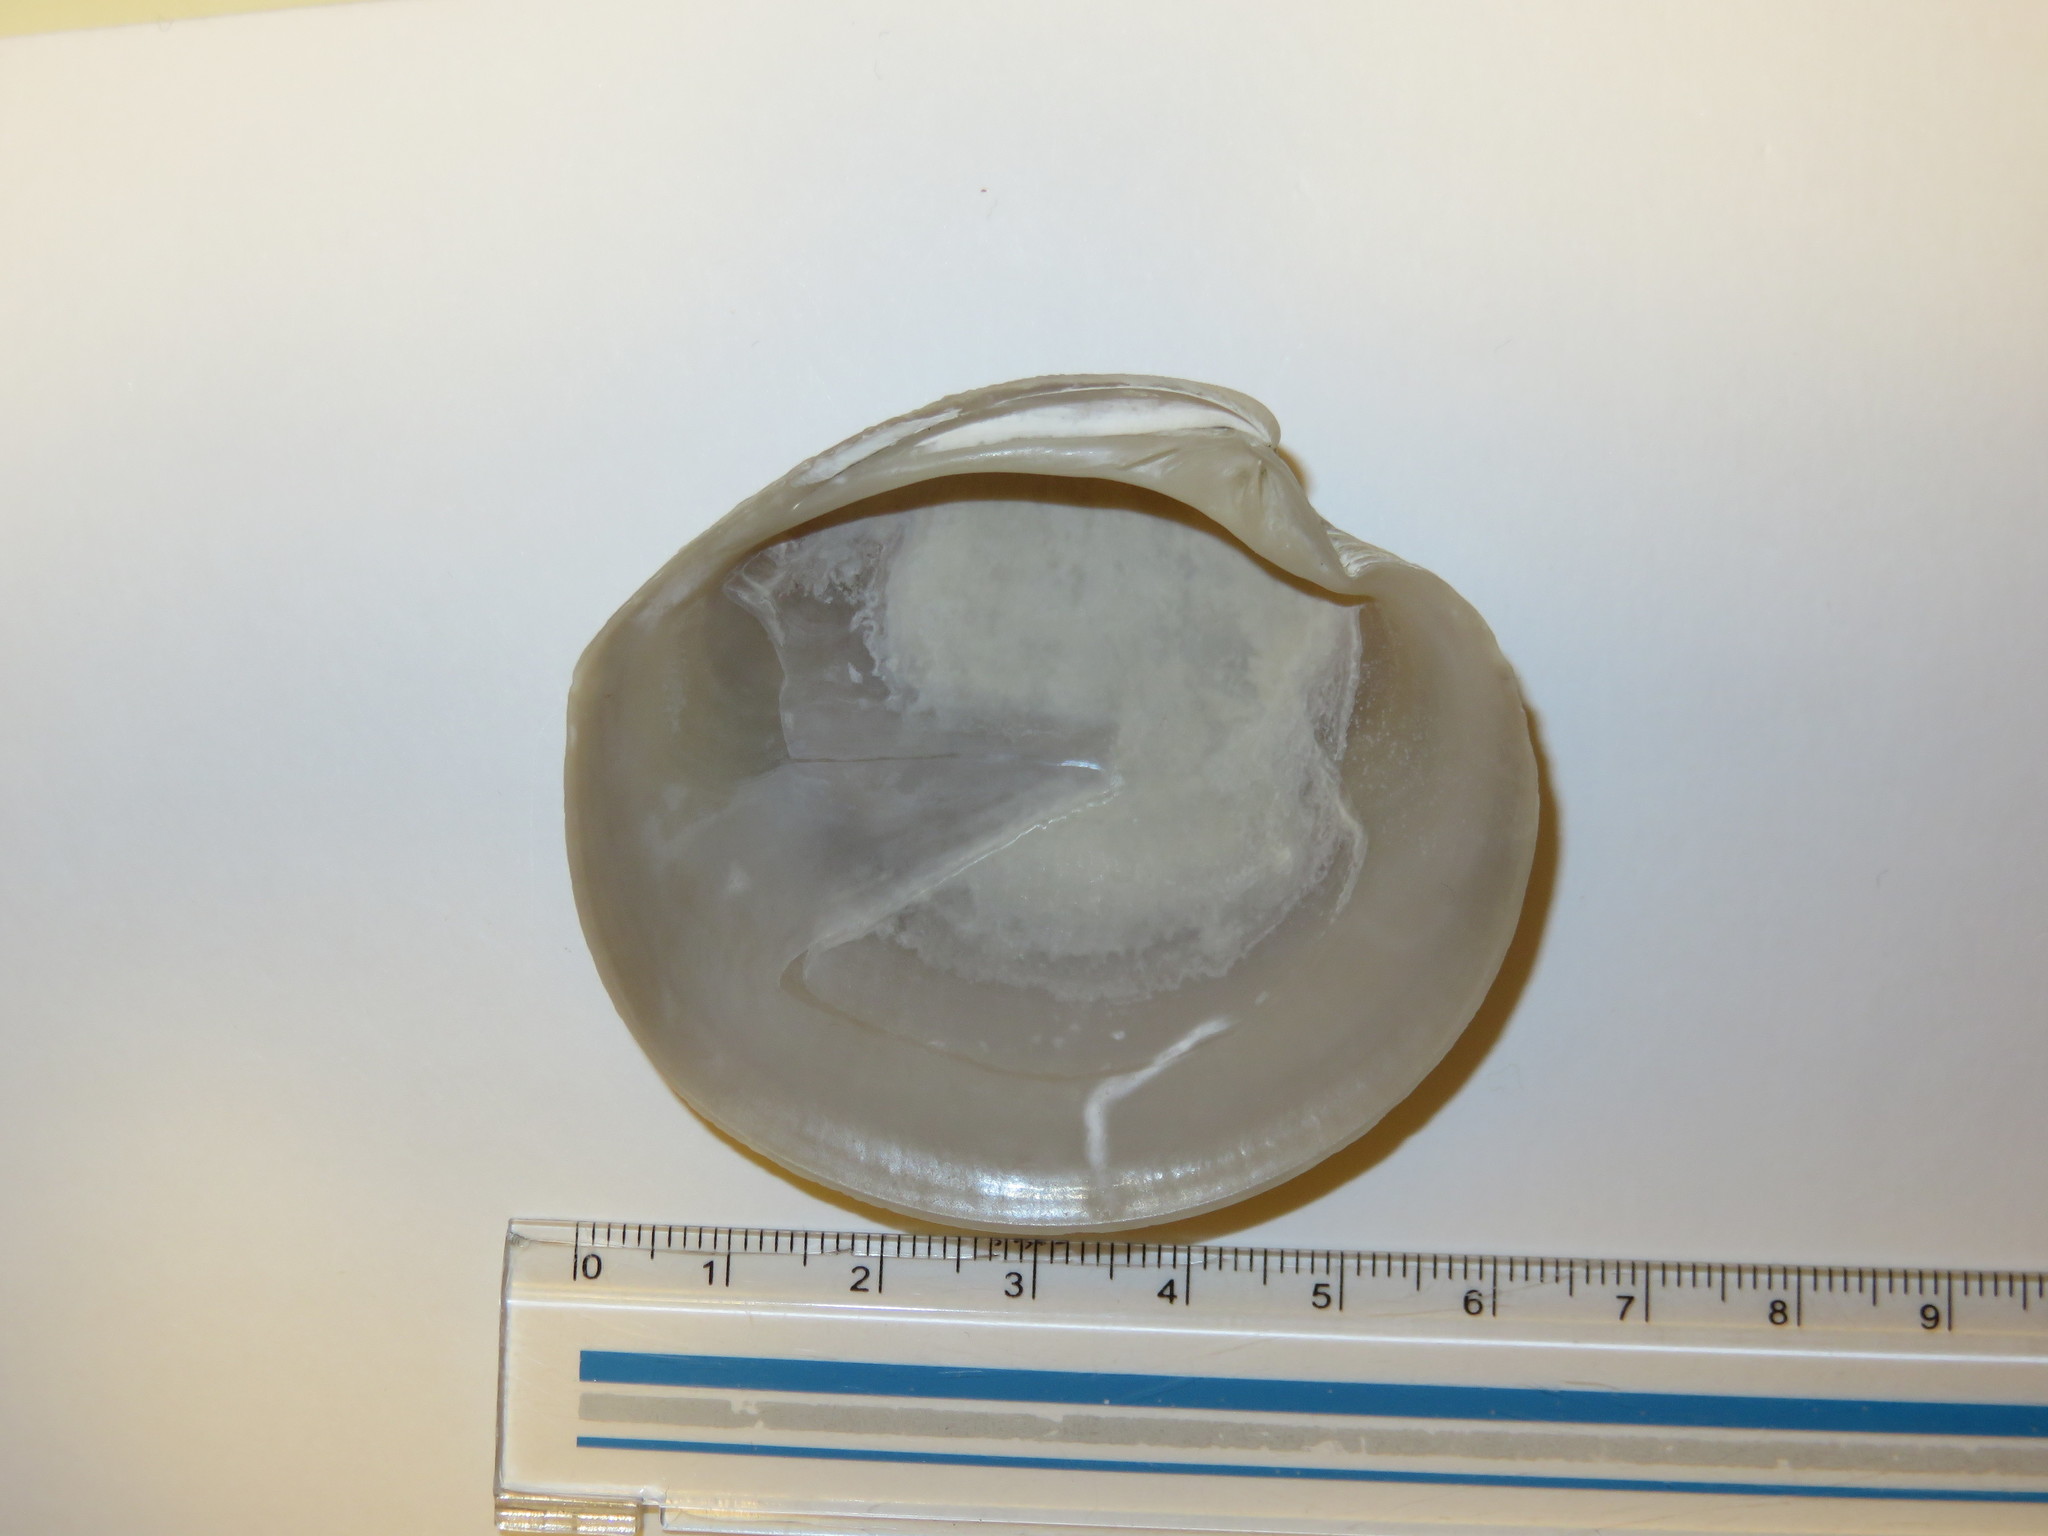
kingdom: Animalia
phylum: Mollusca
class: Bivalvia
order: Venerida
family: Veneridae
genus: Dosinia
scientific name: Dosinia japonica
